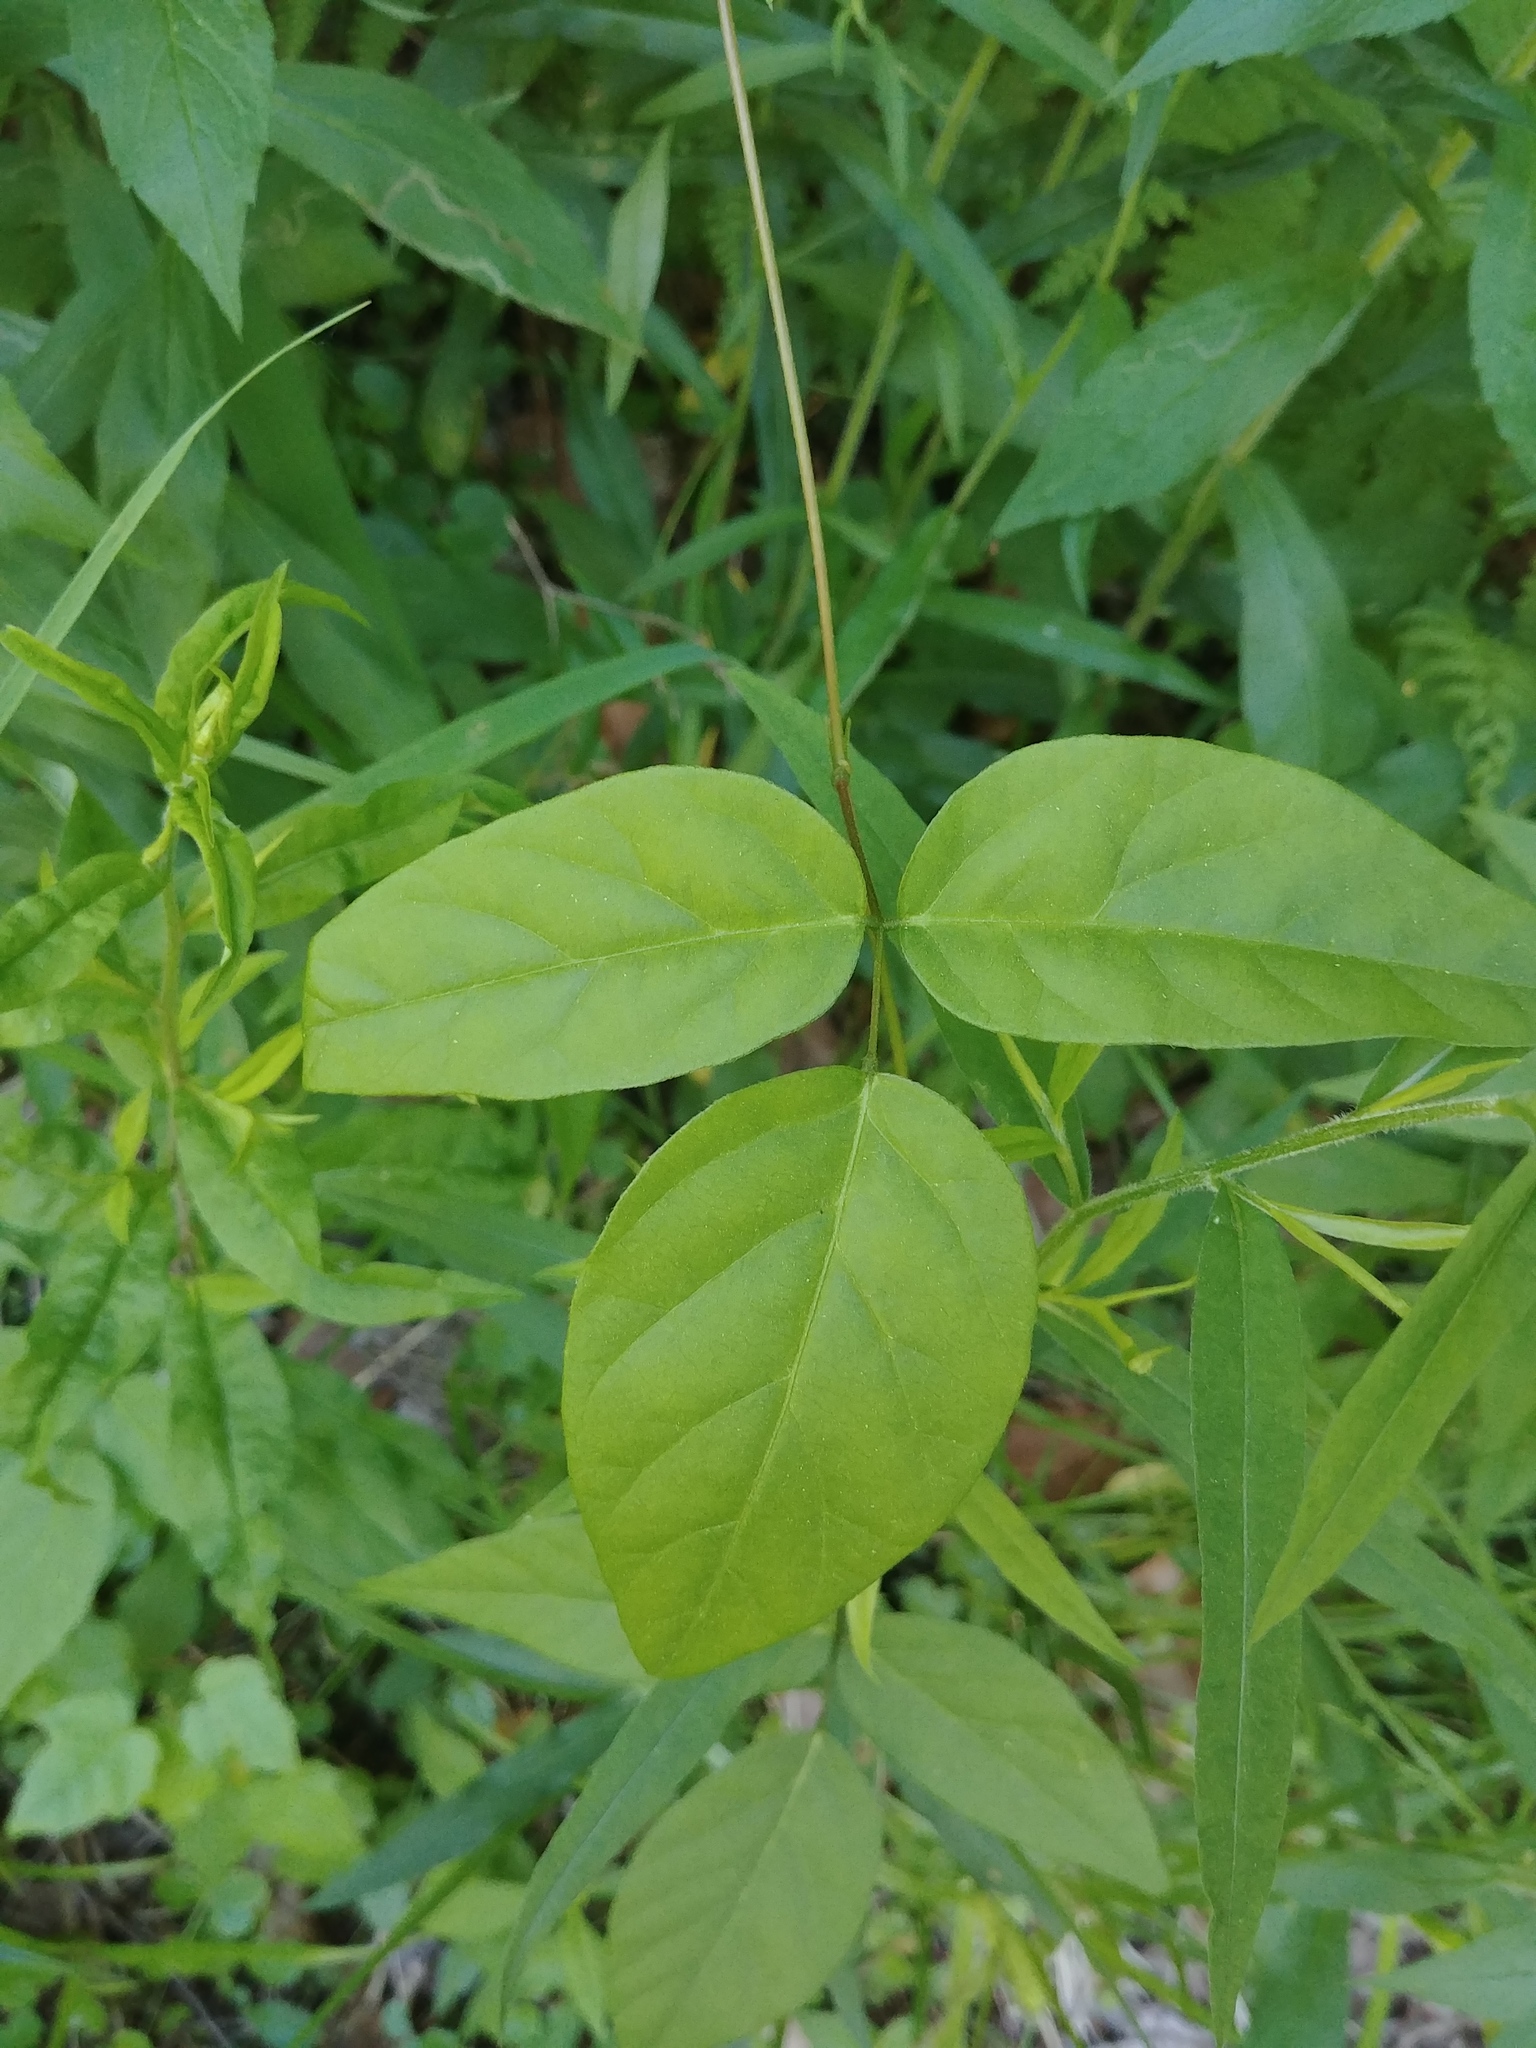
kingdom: Plantae
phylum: Tracheophyta
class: Magnoliopsida
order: Fabales
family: Fabaceae
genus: Apios
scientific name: Apios americana
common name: American potato-bean
